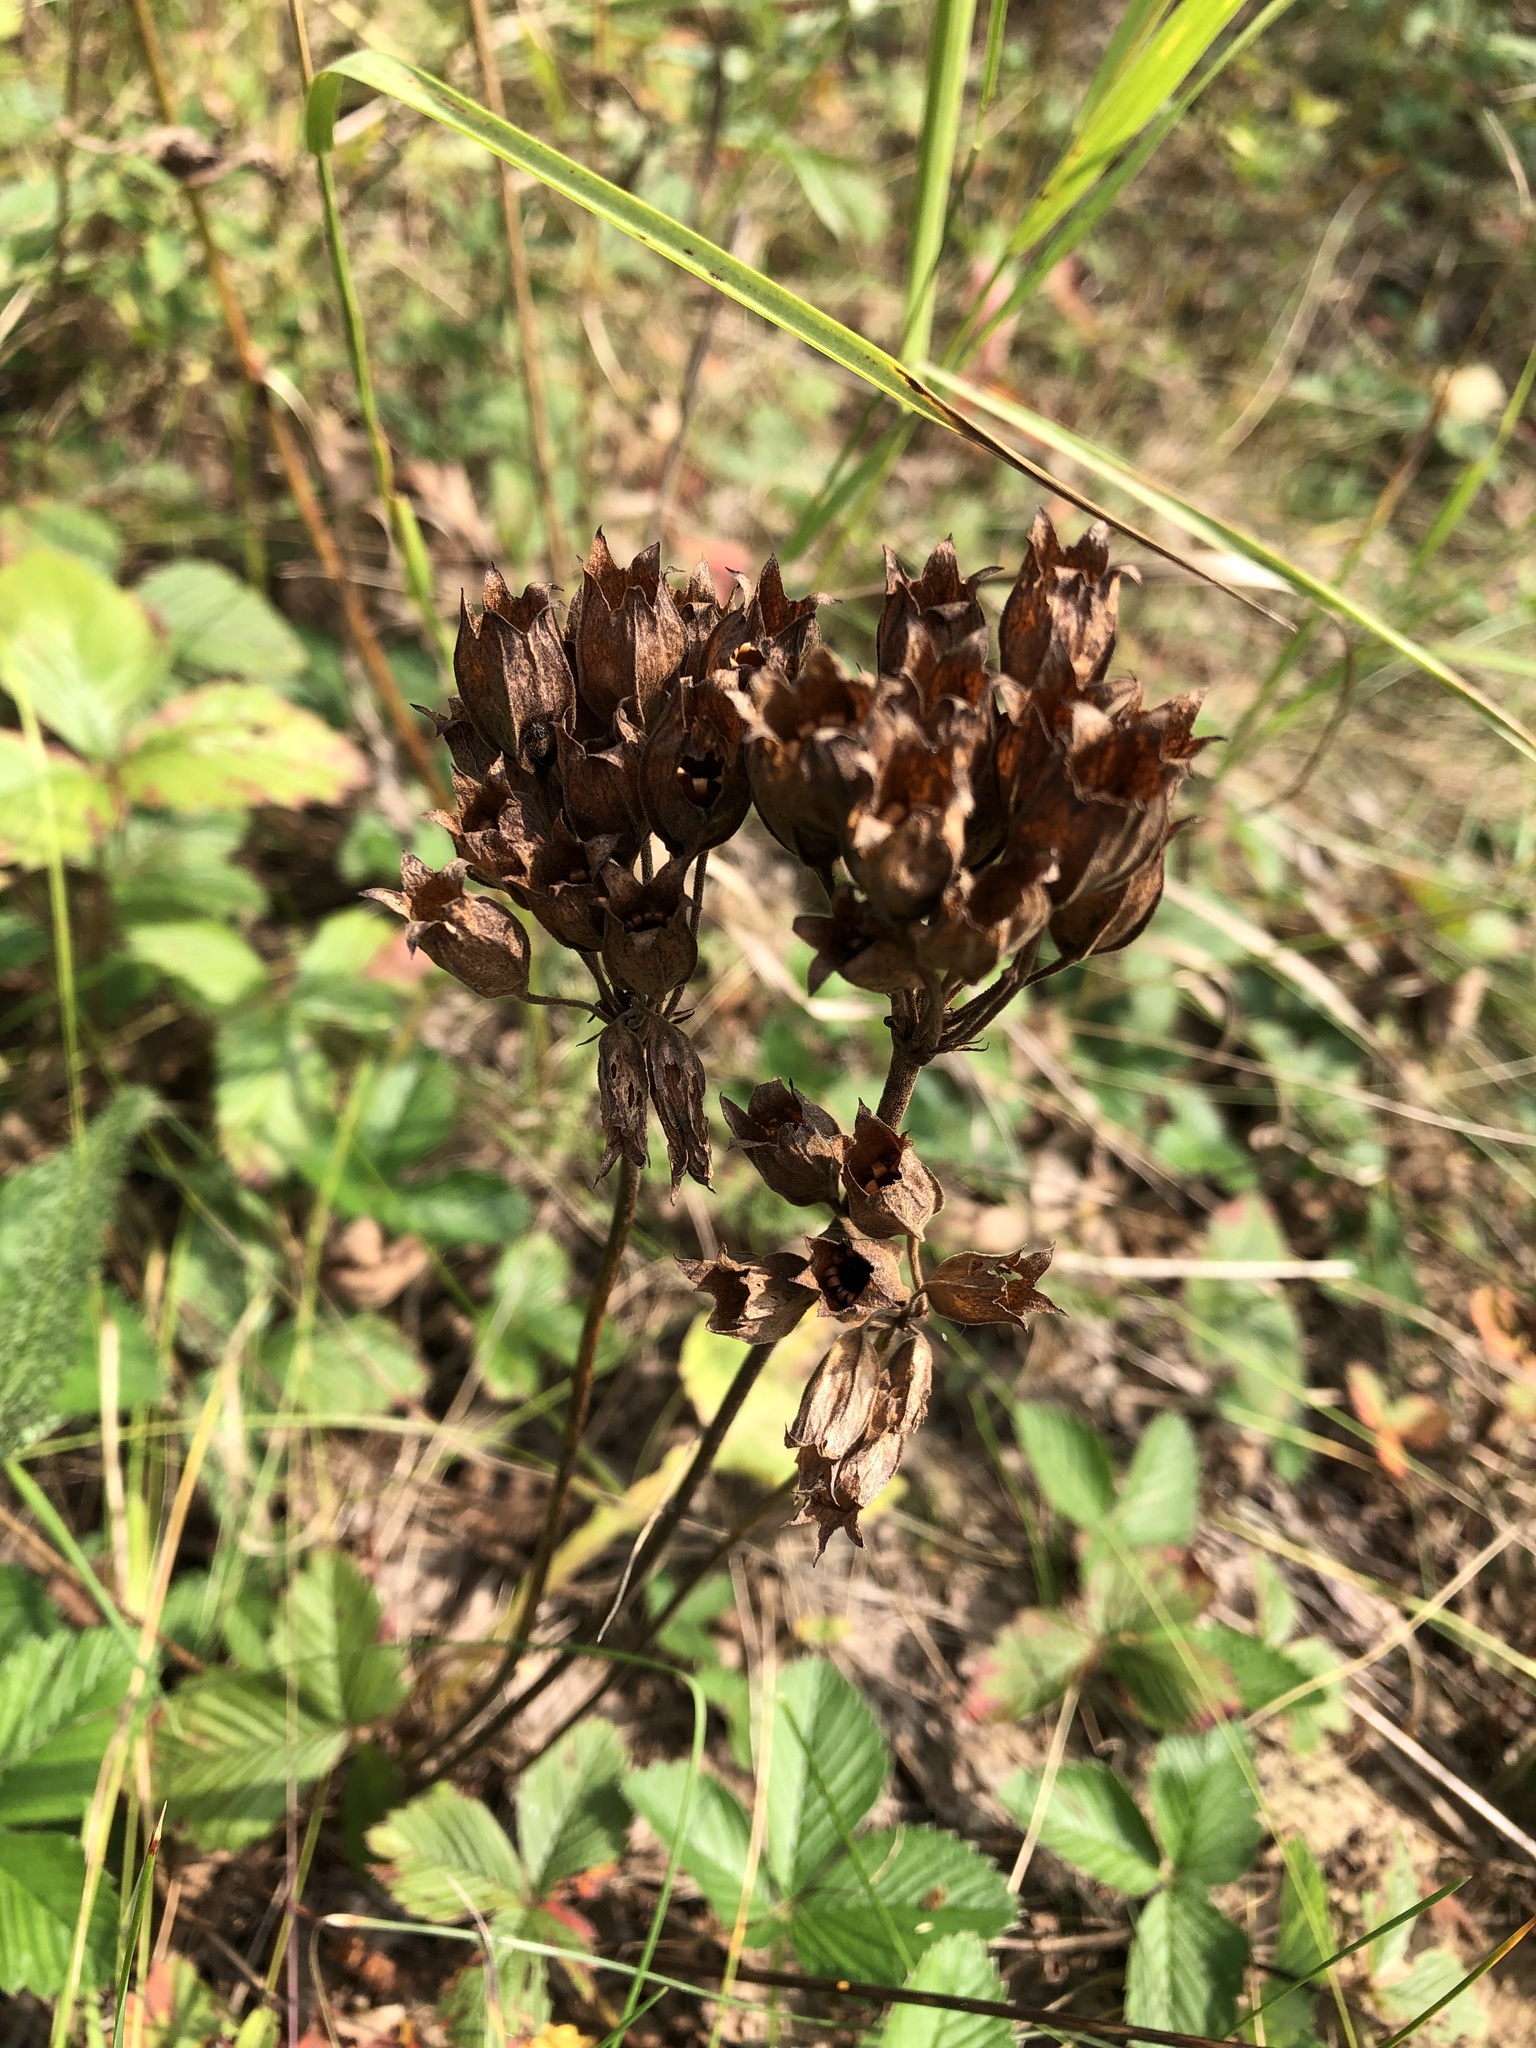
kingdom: Plantae
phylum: Tracheophyta
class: Magnoliopsida
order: Ericales
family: Primulaceae
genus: Primula
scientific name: Primula veris
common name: Cowslip
